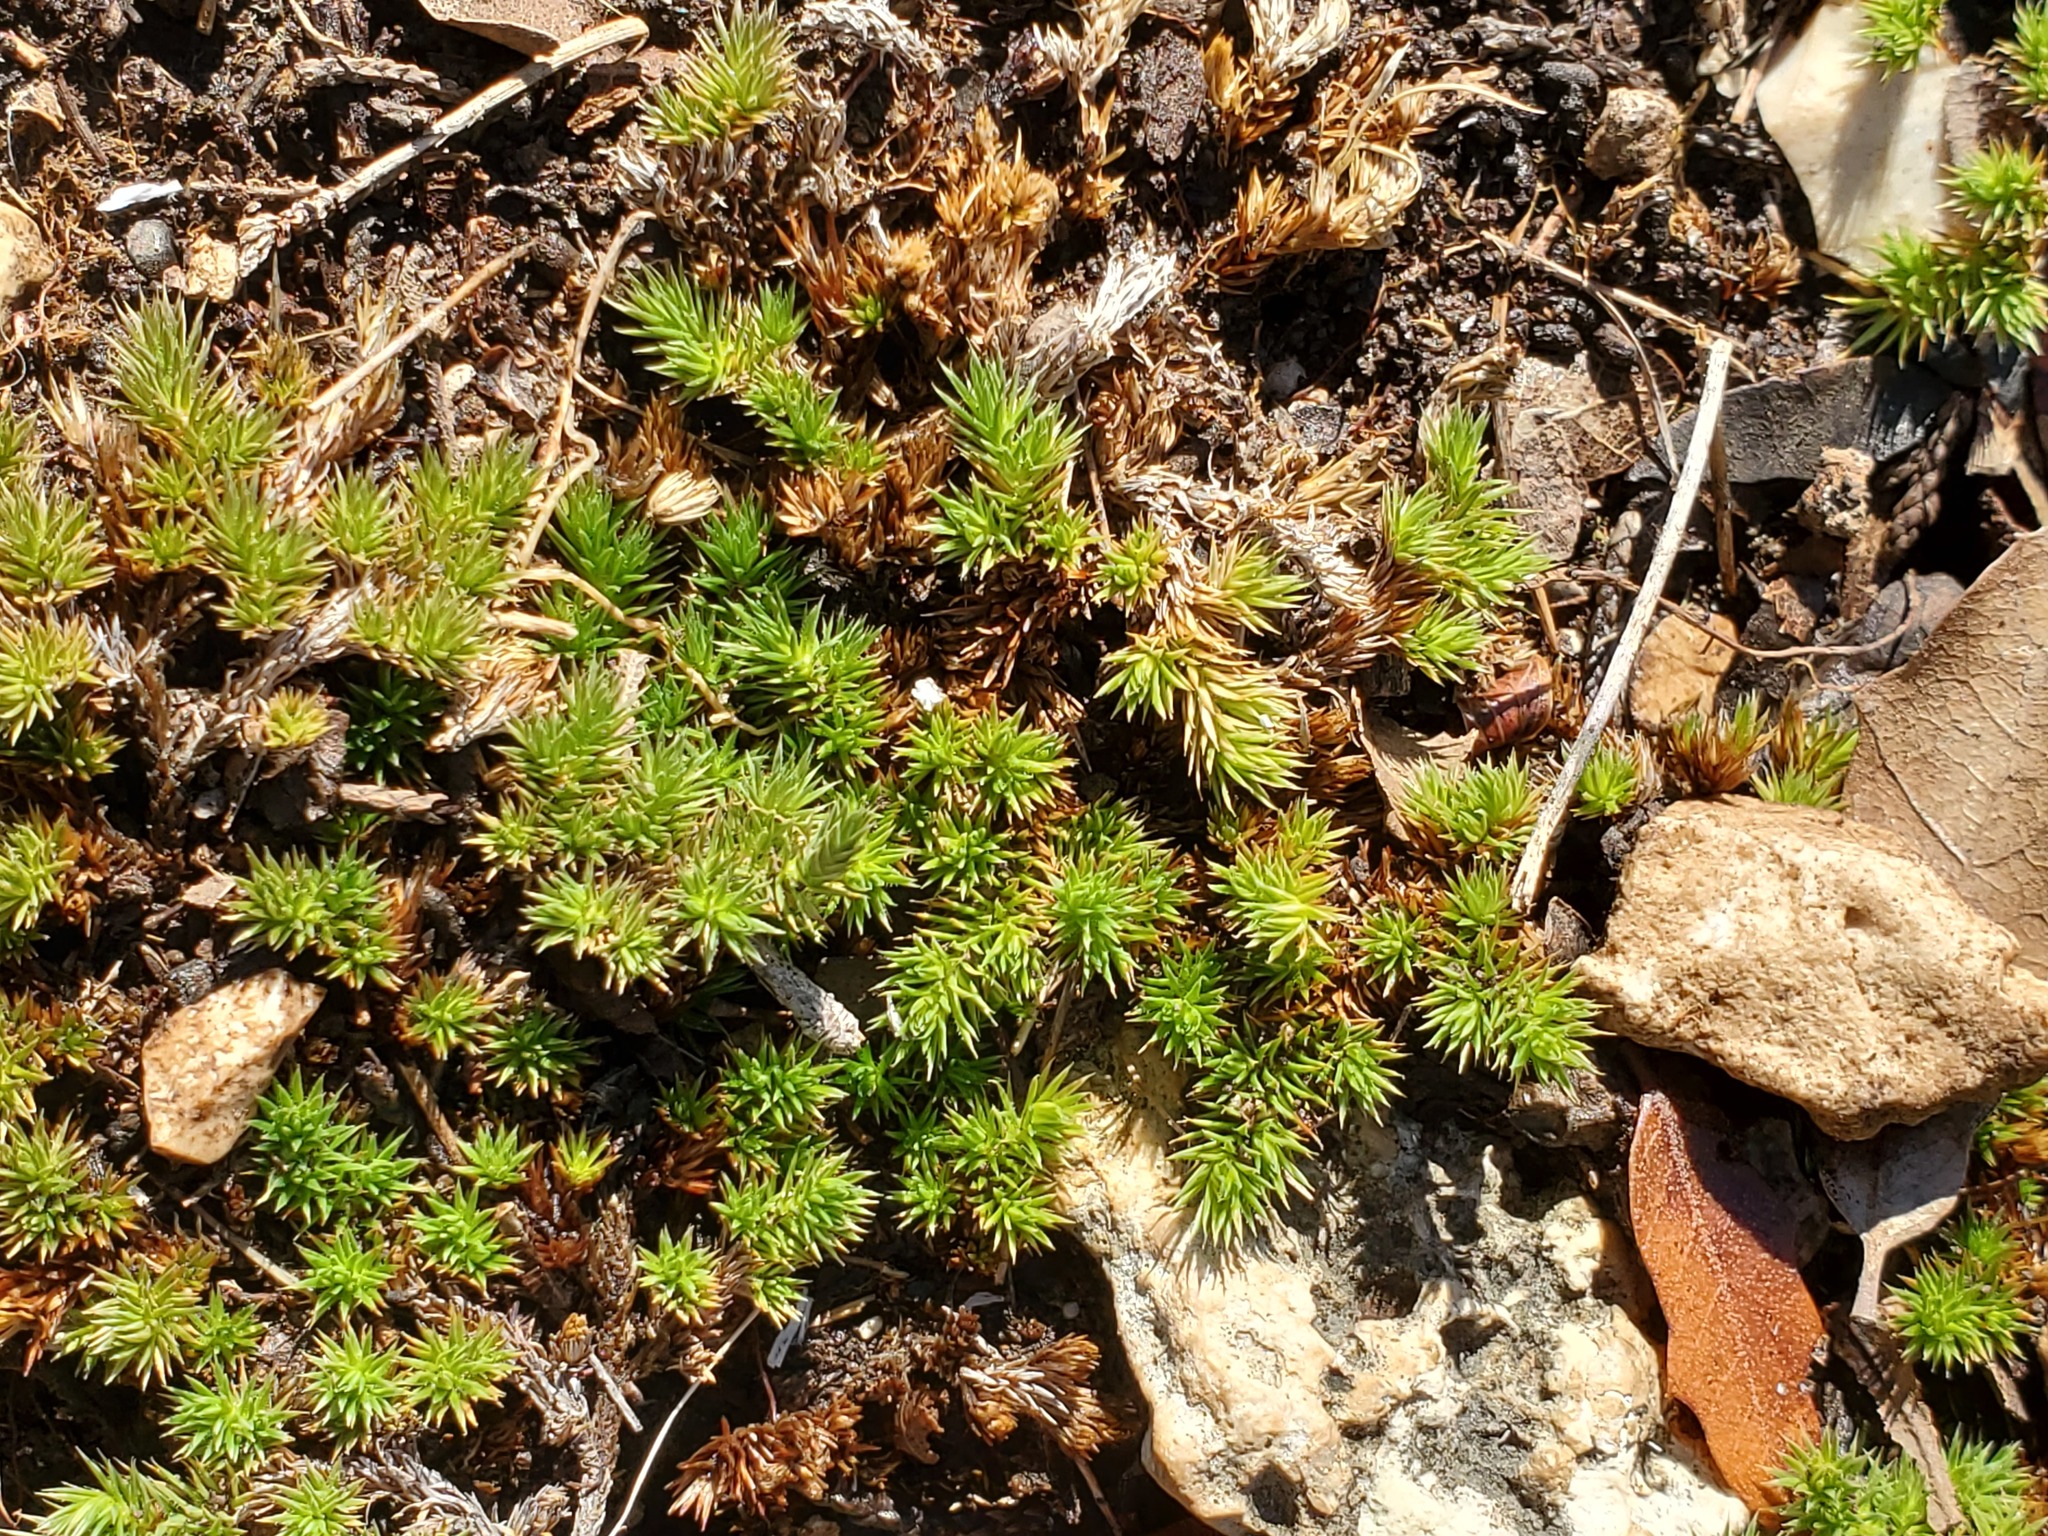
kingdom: Plantae
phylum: Tracheophyta
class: Lycopodiopsida
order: Selaginellales
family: Selaginellaceae
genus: Selaginella
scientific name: Selaginella wrightii
